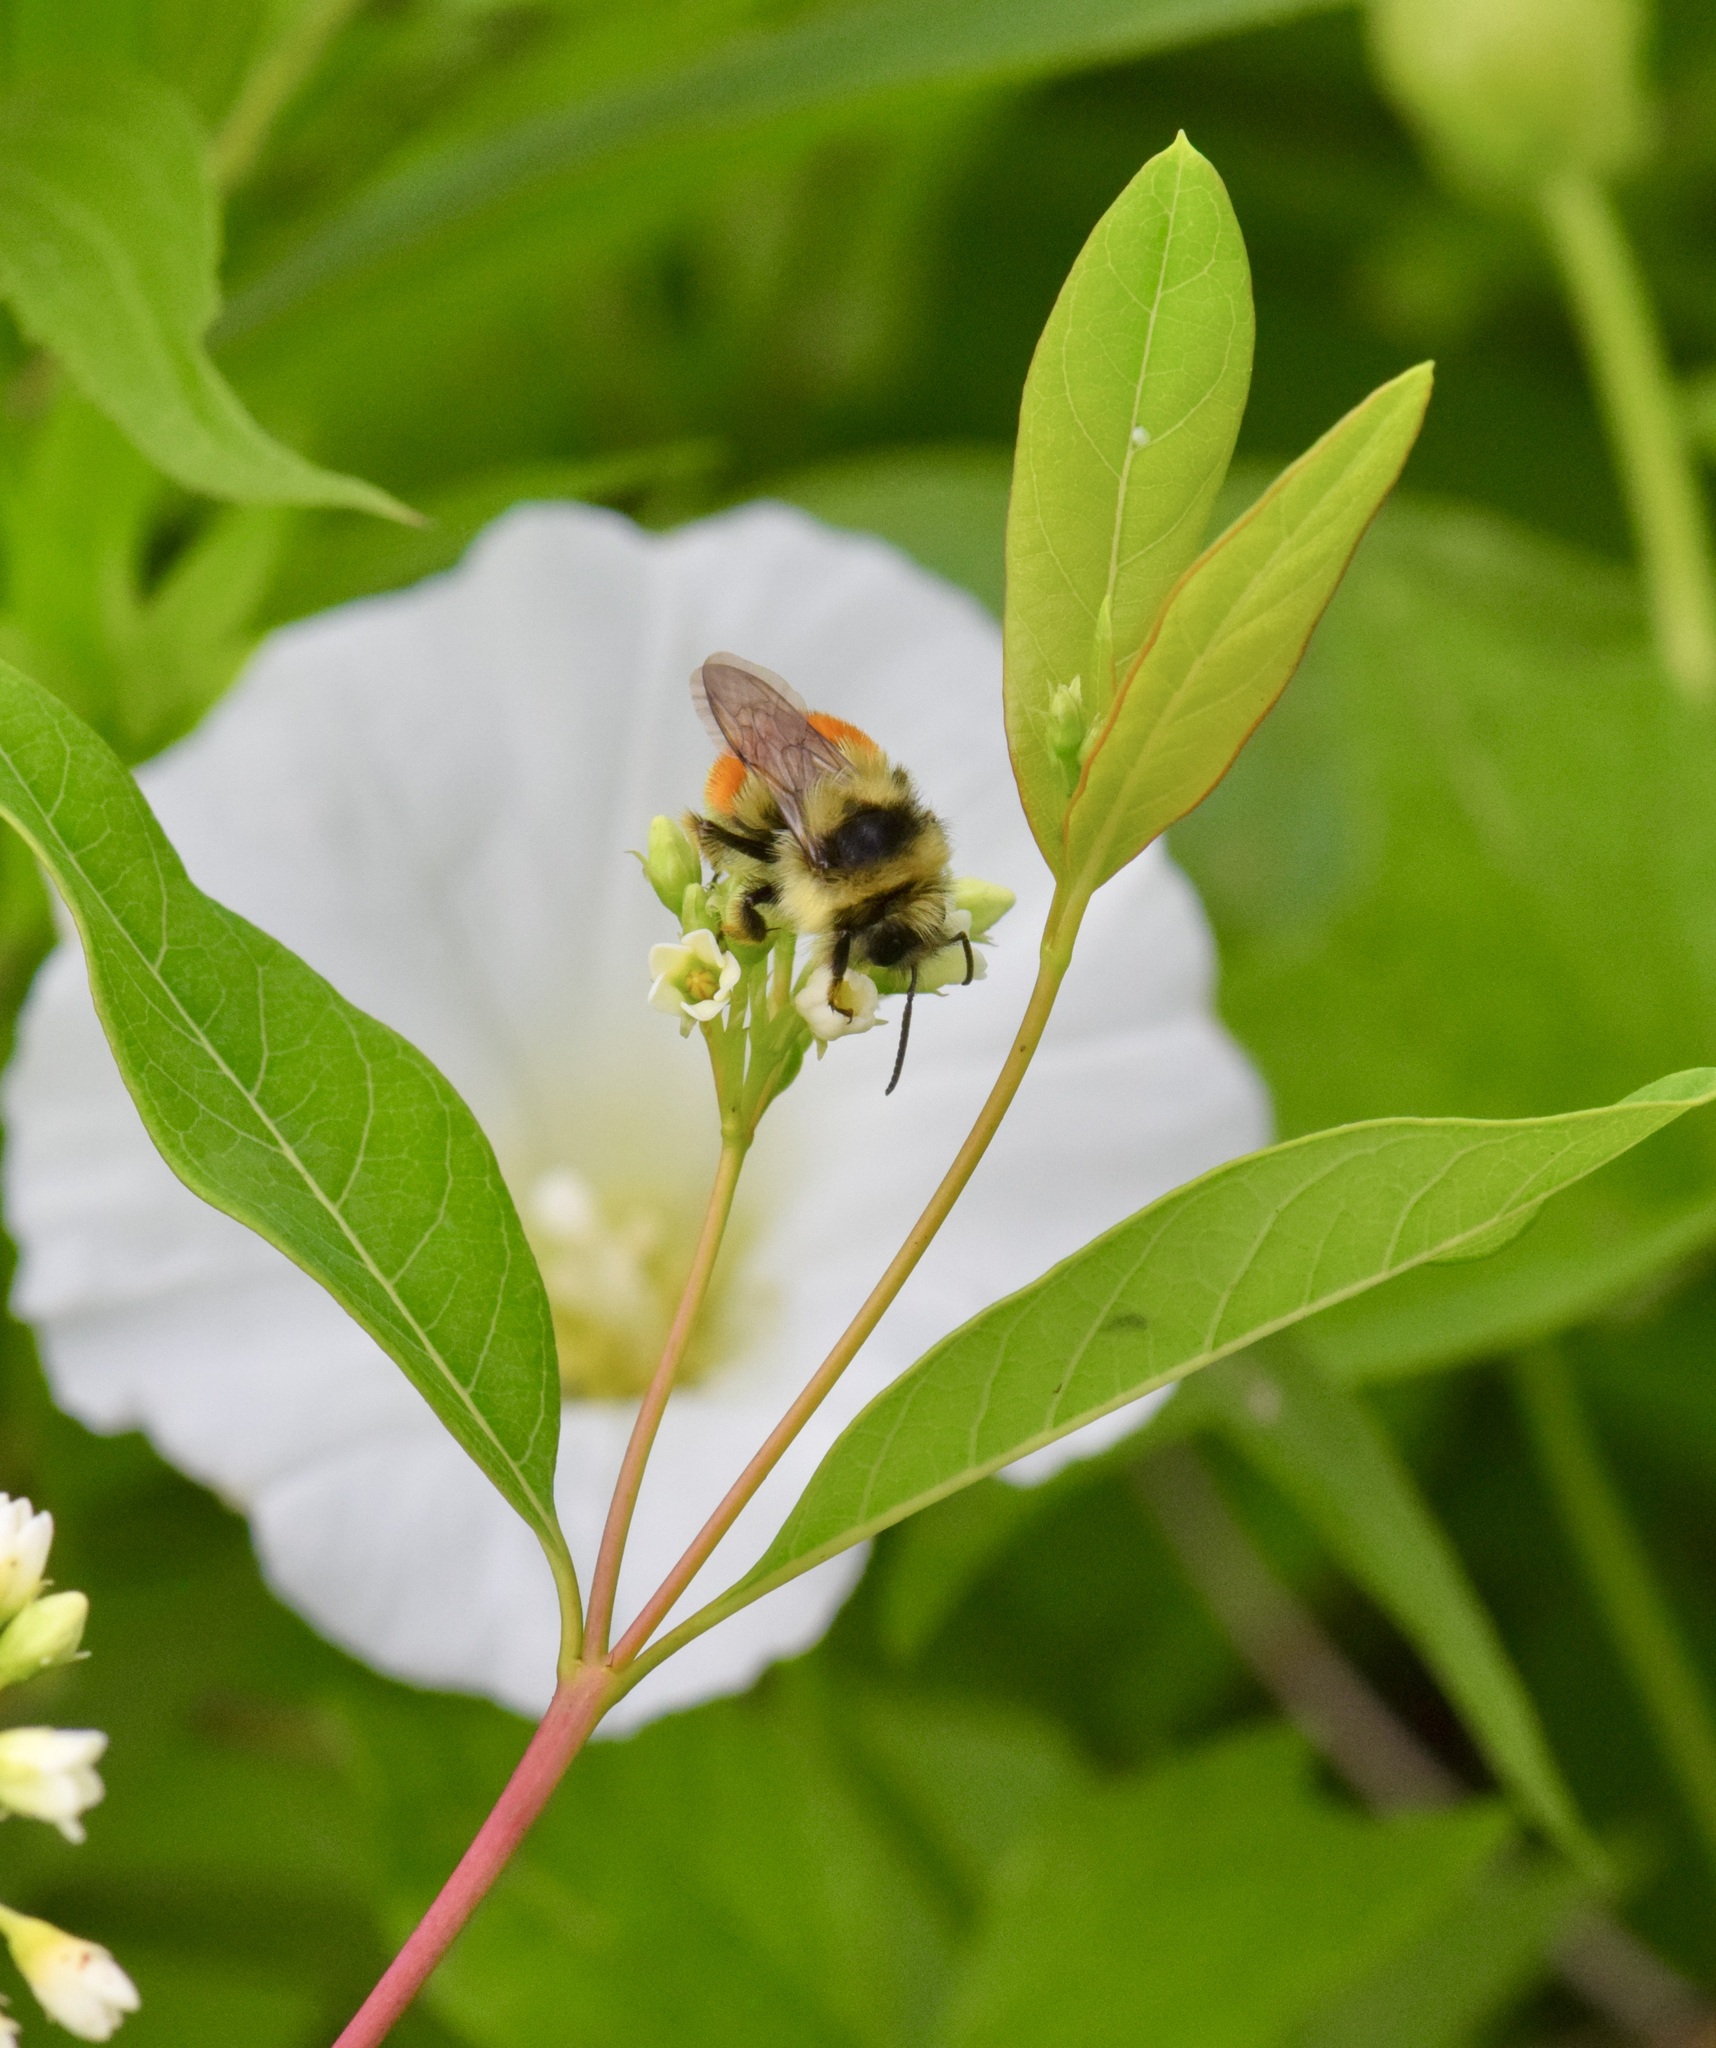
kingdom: Animalia
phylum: Arthropoda
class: Insecta
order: Hymenoptera
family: Apidae
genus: Bombus
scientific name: Bombus ternarius
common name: Tri-colored bumble bee
